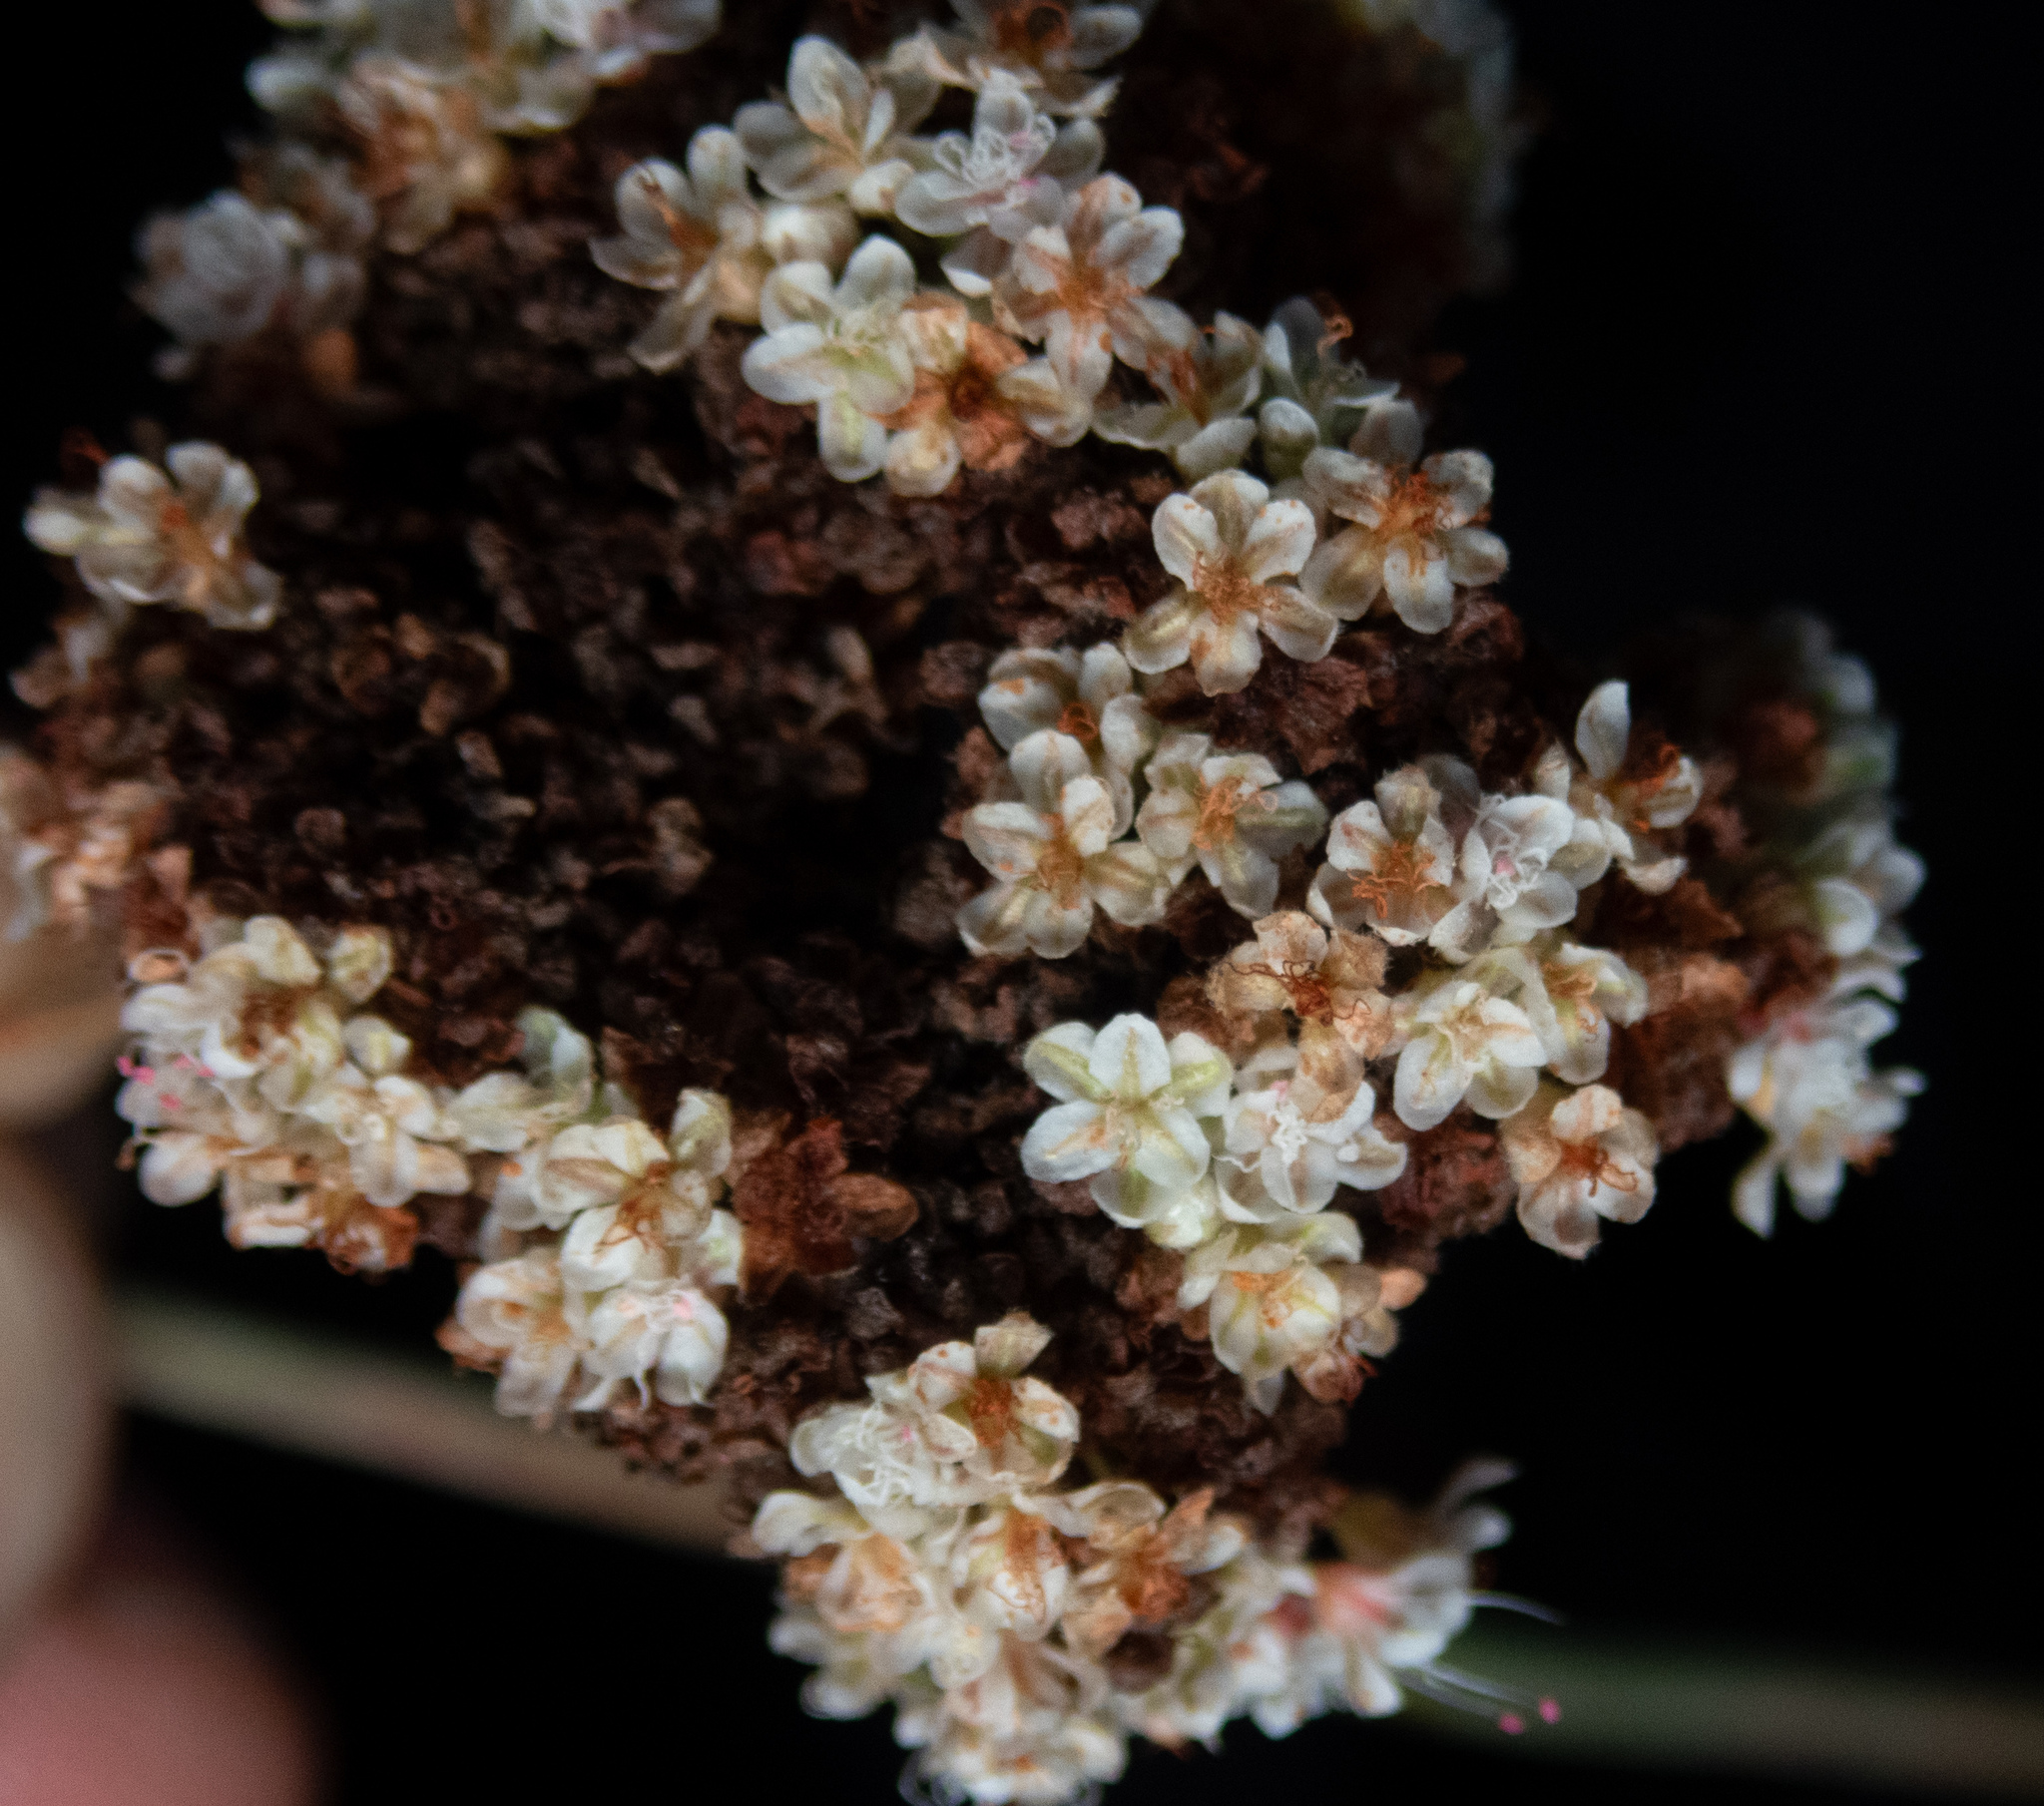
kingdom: Plantae
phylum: Tracheophyta
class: Magnoliopsida
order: Caryophyllales
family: Polygonaceae
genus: Eriogonum
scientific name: Eriogonum fasciculatum
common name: California wild buckwheat
